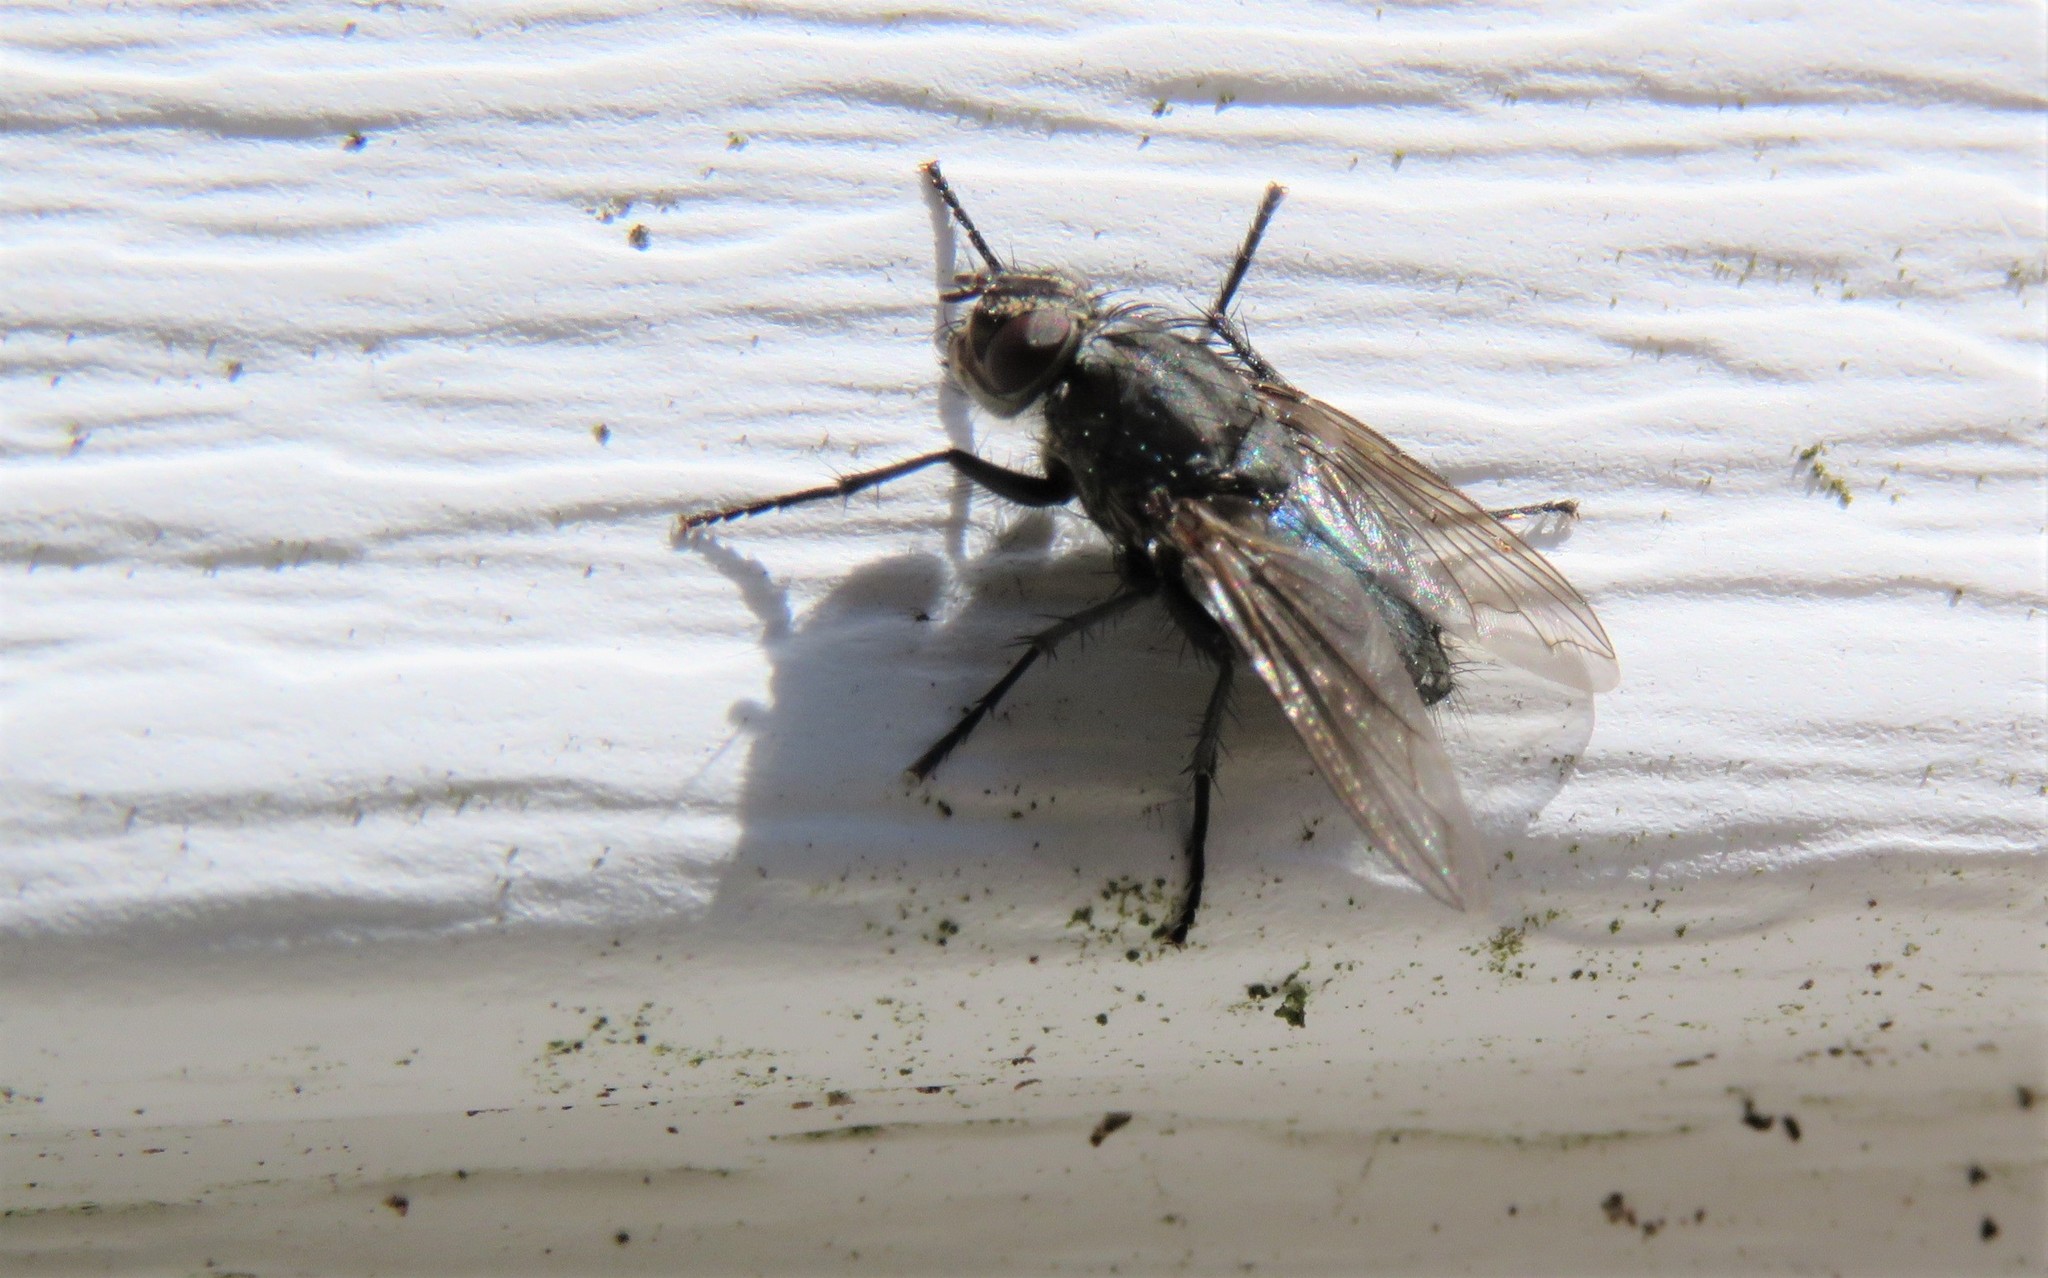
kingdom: Animalia
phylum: Arthropoda
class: Insecta
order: Diptera
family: Polleniidae
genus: Pollenia
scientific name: Pollenia vagabunda
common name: Vagabund cluster fly
